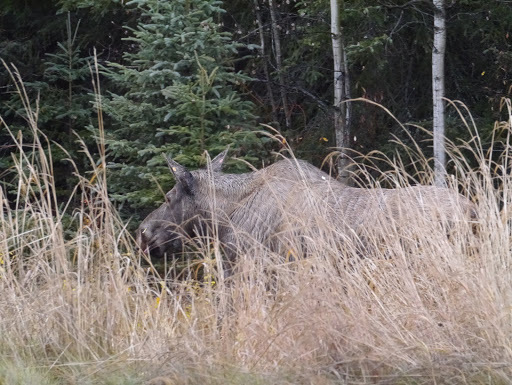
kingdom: Animalia
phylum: Chordata
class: Mammalia
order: Artiodactyla
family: Cervidae
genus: Alces
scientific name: Alces alces
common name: Moose
